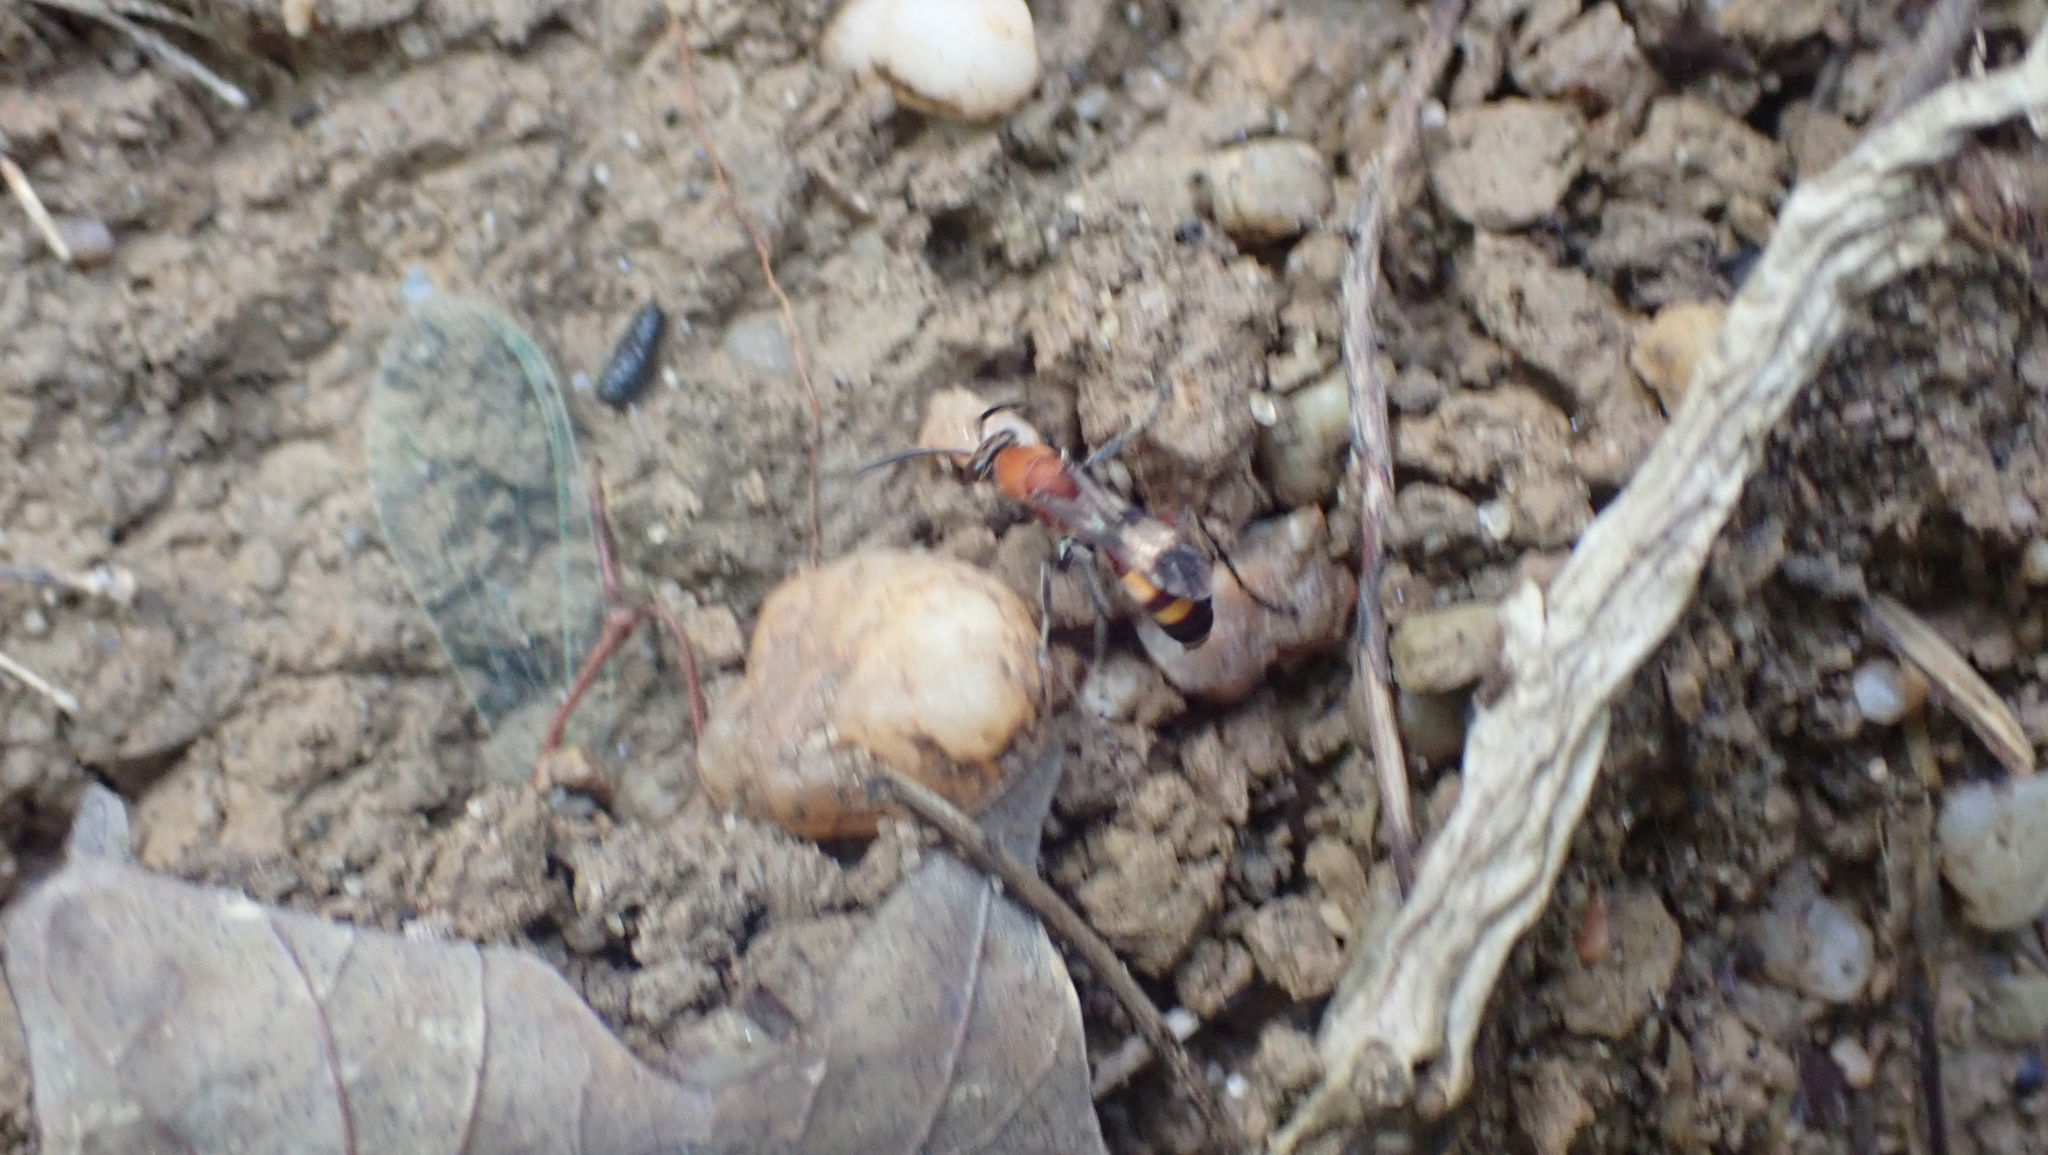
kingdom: Animalia
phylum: Arthropoda
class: Insecta
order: Hymenoptera
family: Pompilidae
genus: Psorthaspis
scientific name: Psorthaspis mariae
